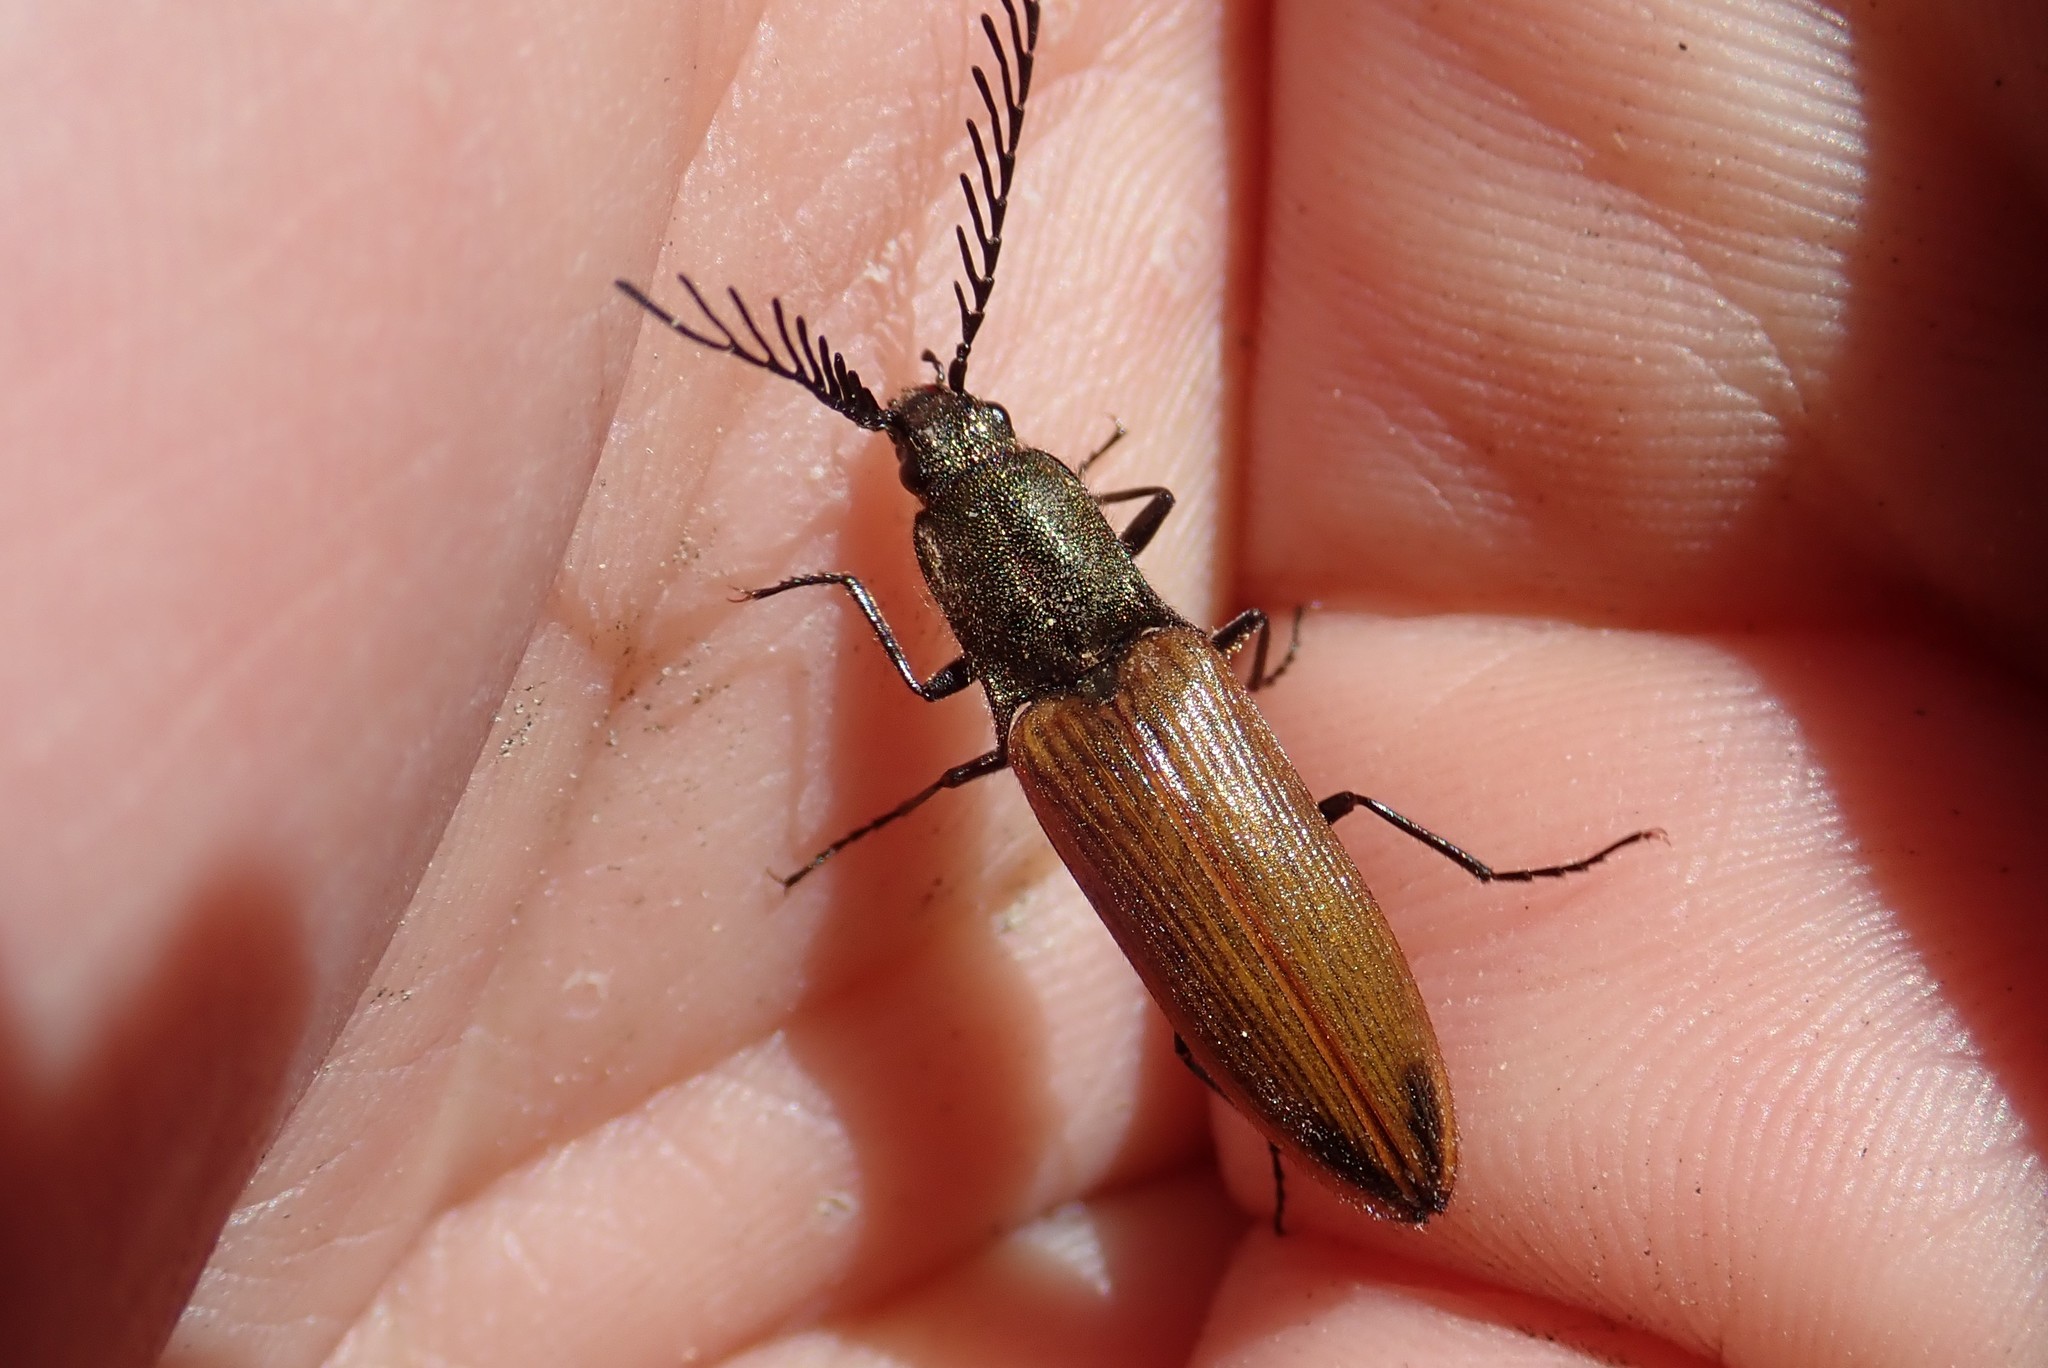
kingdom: Animalia
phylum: Arthropoda
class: Insecta
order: Coleoptera
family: Elateridae
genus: Ctenicera
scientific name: Ctenicera virens
